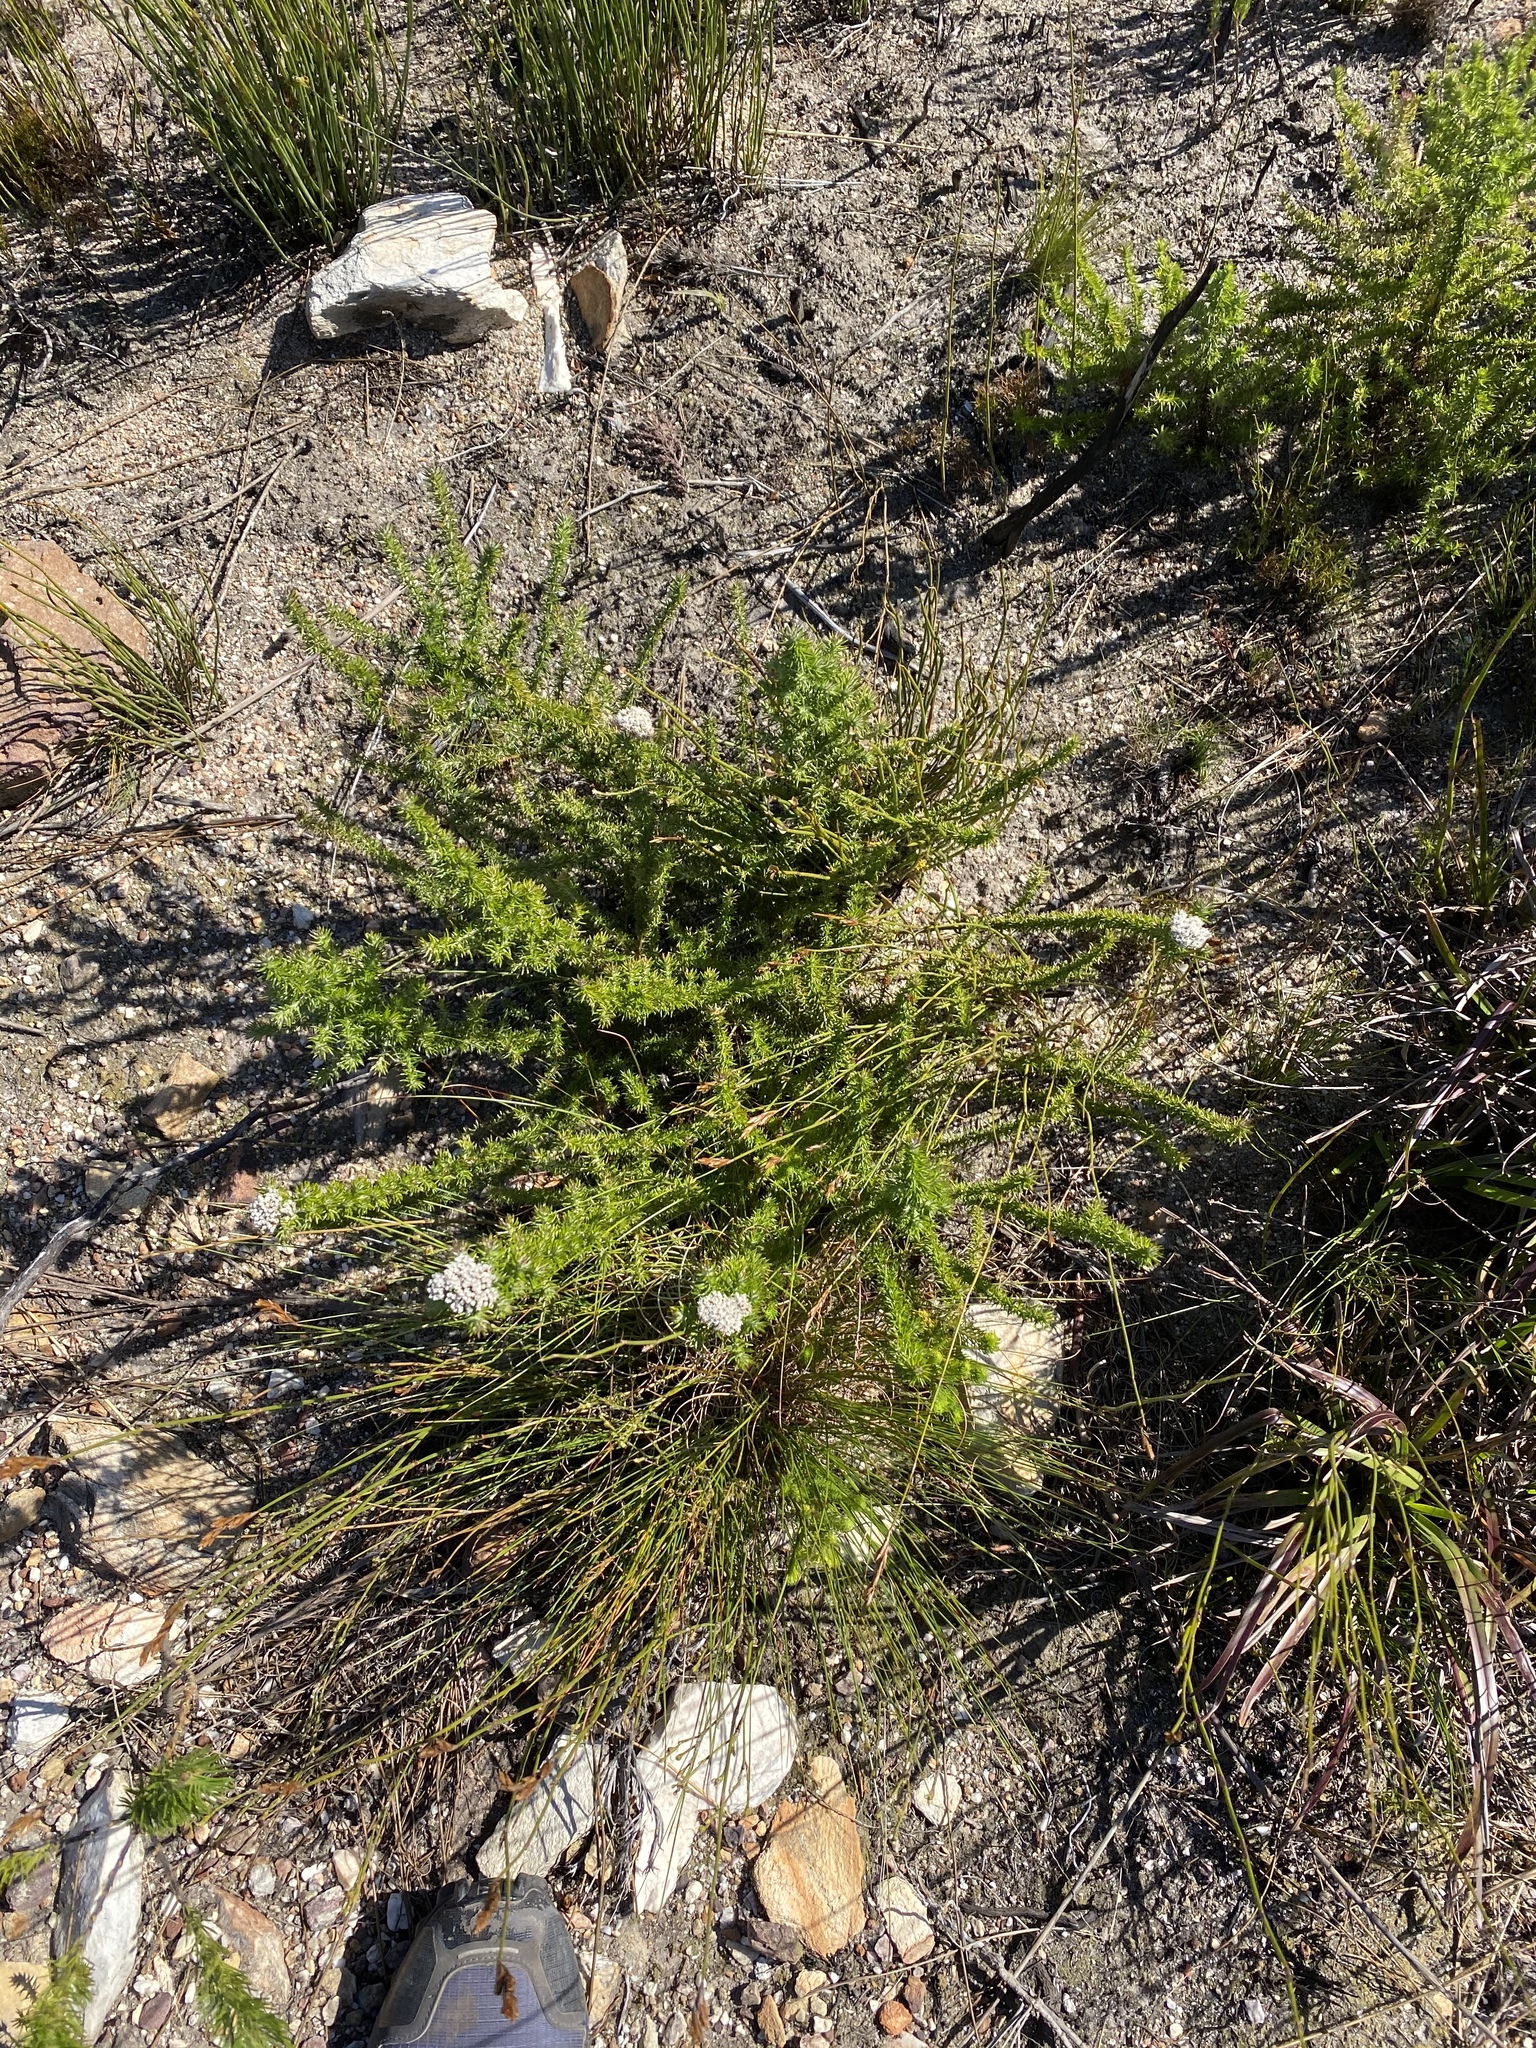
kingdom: Plantae
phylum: Tracheophyta
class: Magnoliopsida
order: Asterales
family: Asteraceae
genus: Metalasia
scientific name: Metalasia densa
